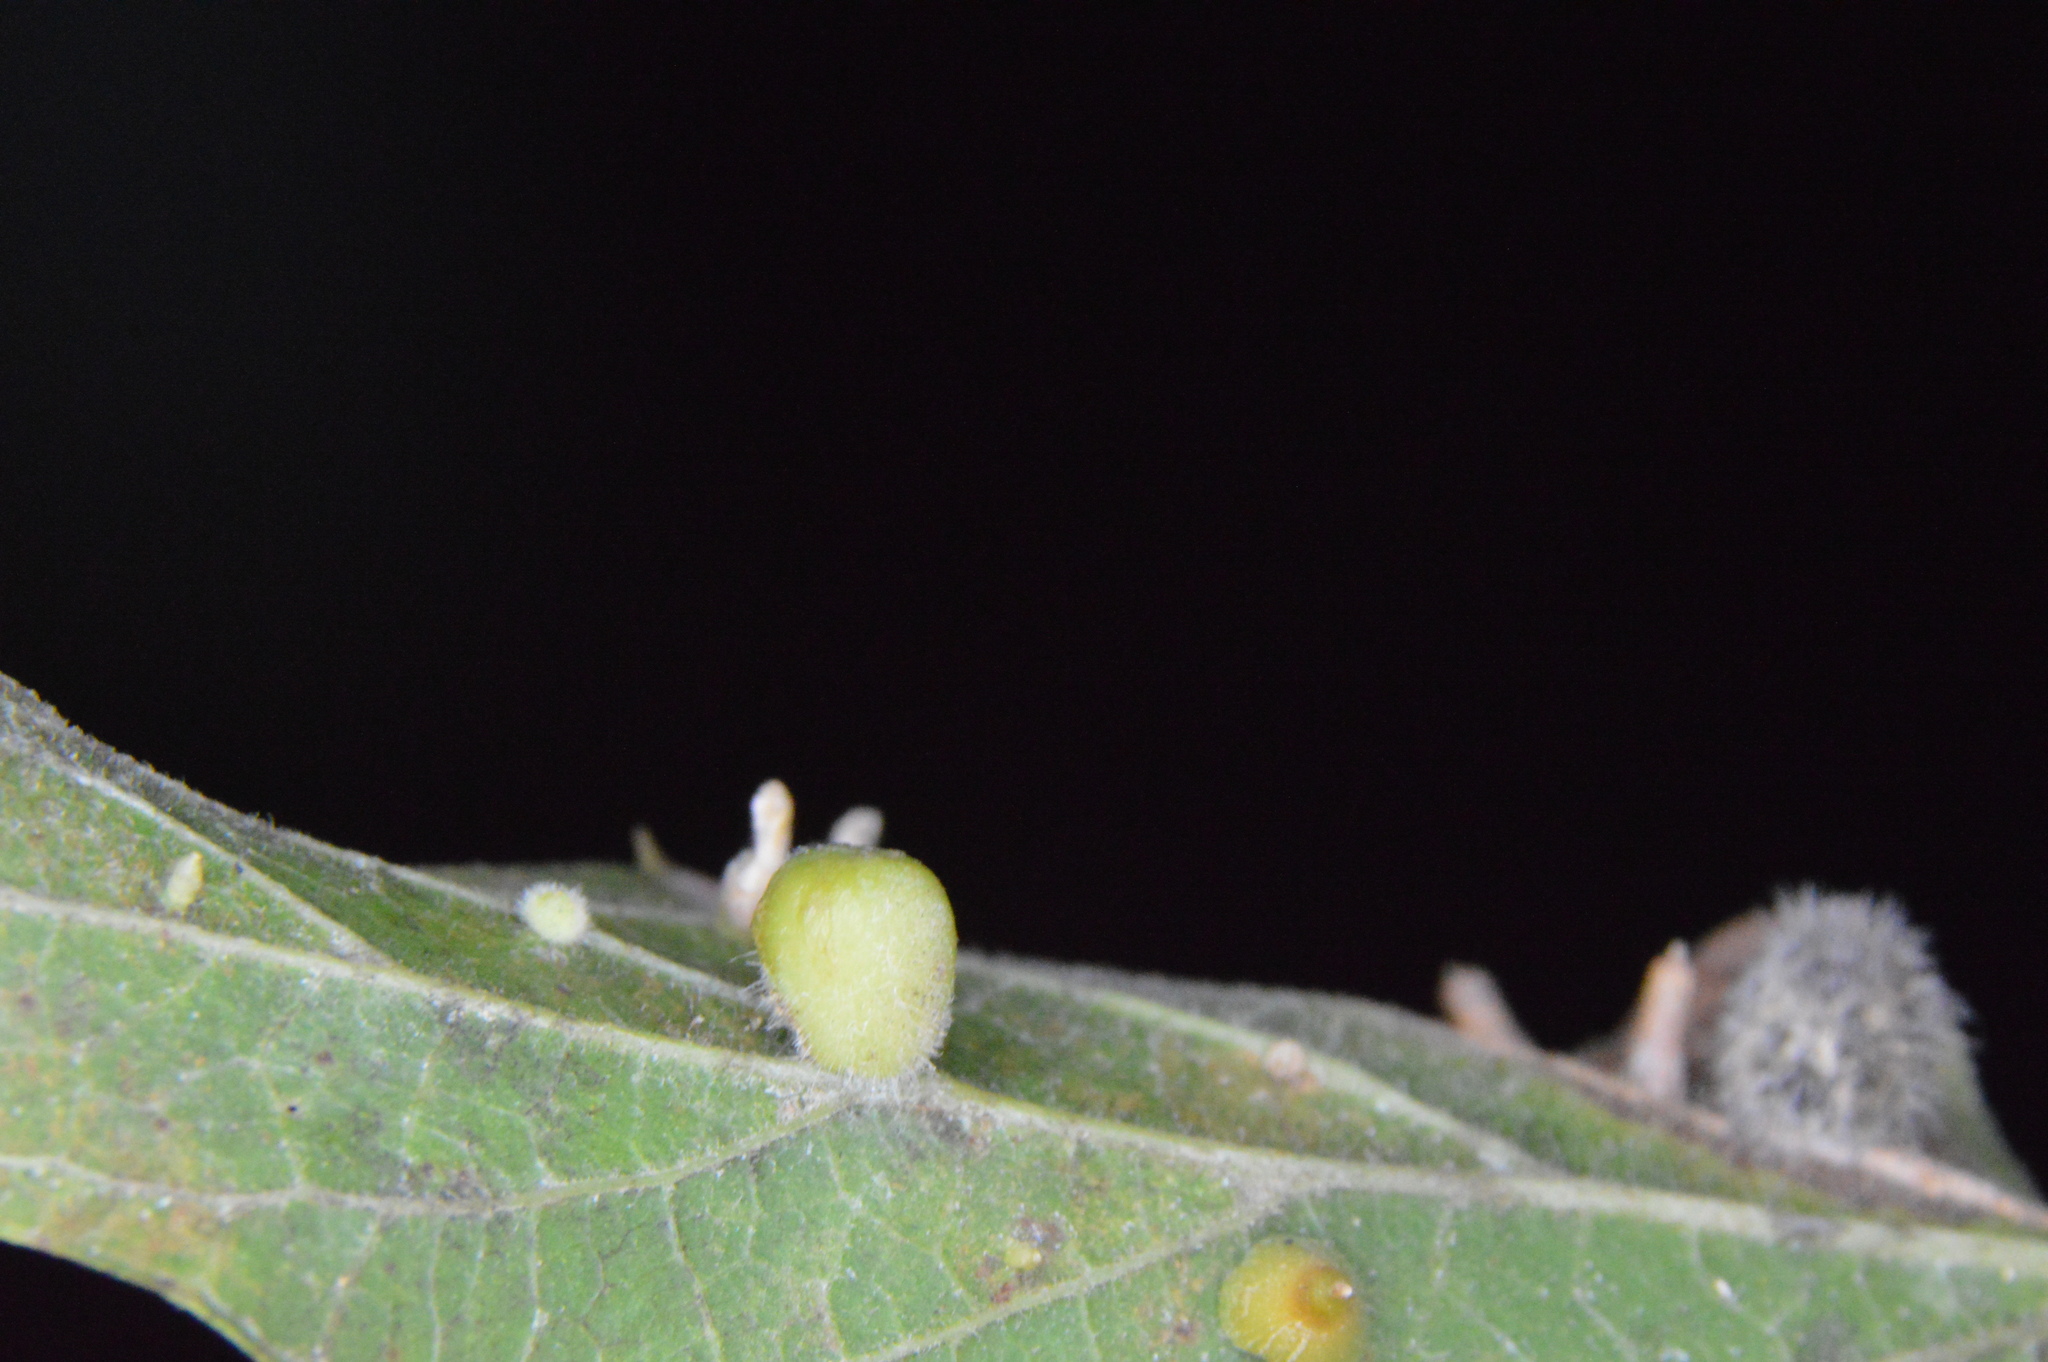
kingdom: Animalia
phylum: Arthropoda
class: Insecta
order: Diptera
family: Cecidomyiidae
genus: Celticecis
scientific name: Celticecis pubescens
